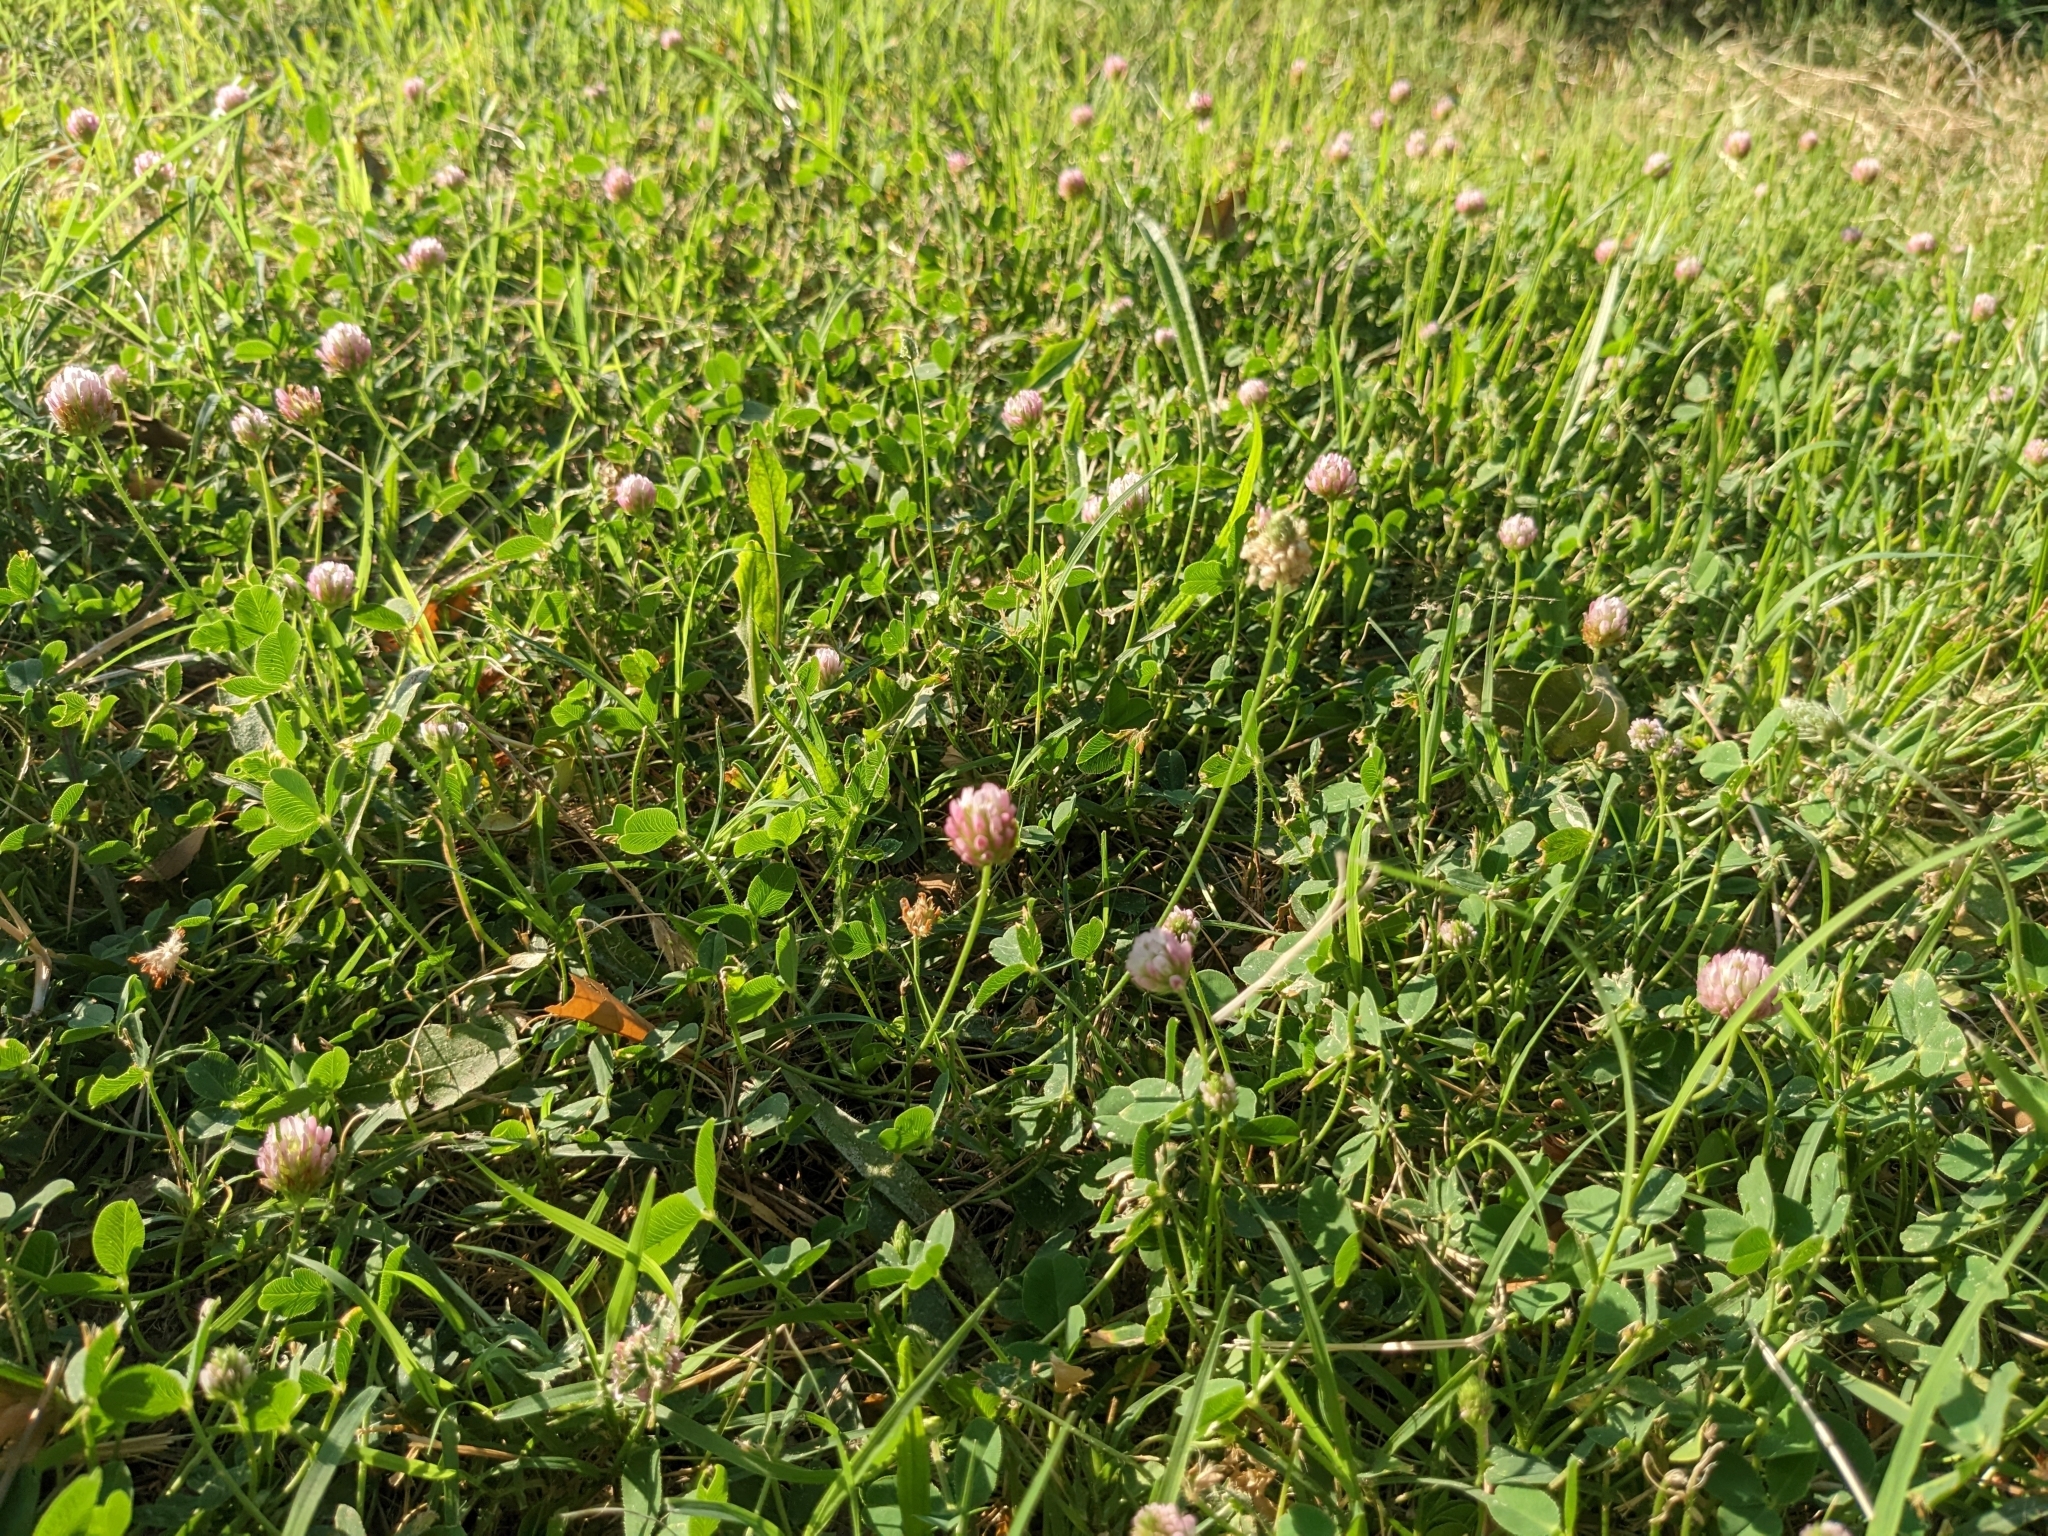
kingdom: Plantae
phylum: Tracheophyta
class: Magnoliopsida
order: Fabales
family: Fabaceae
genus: Trifolium
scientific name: Trifolium fragiferum
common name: Strawberry clover
